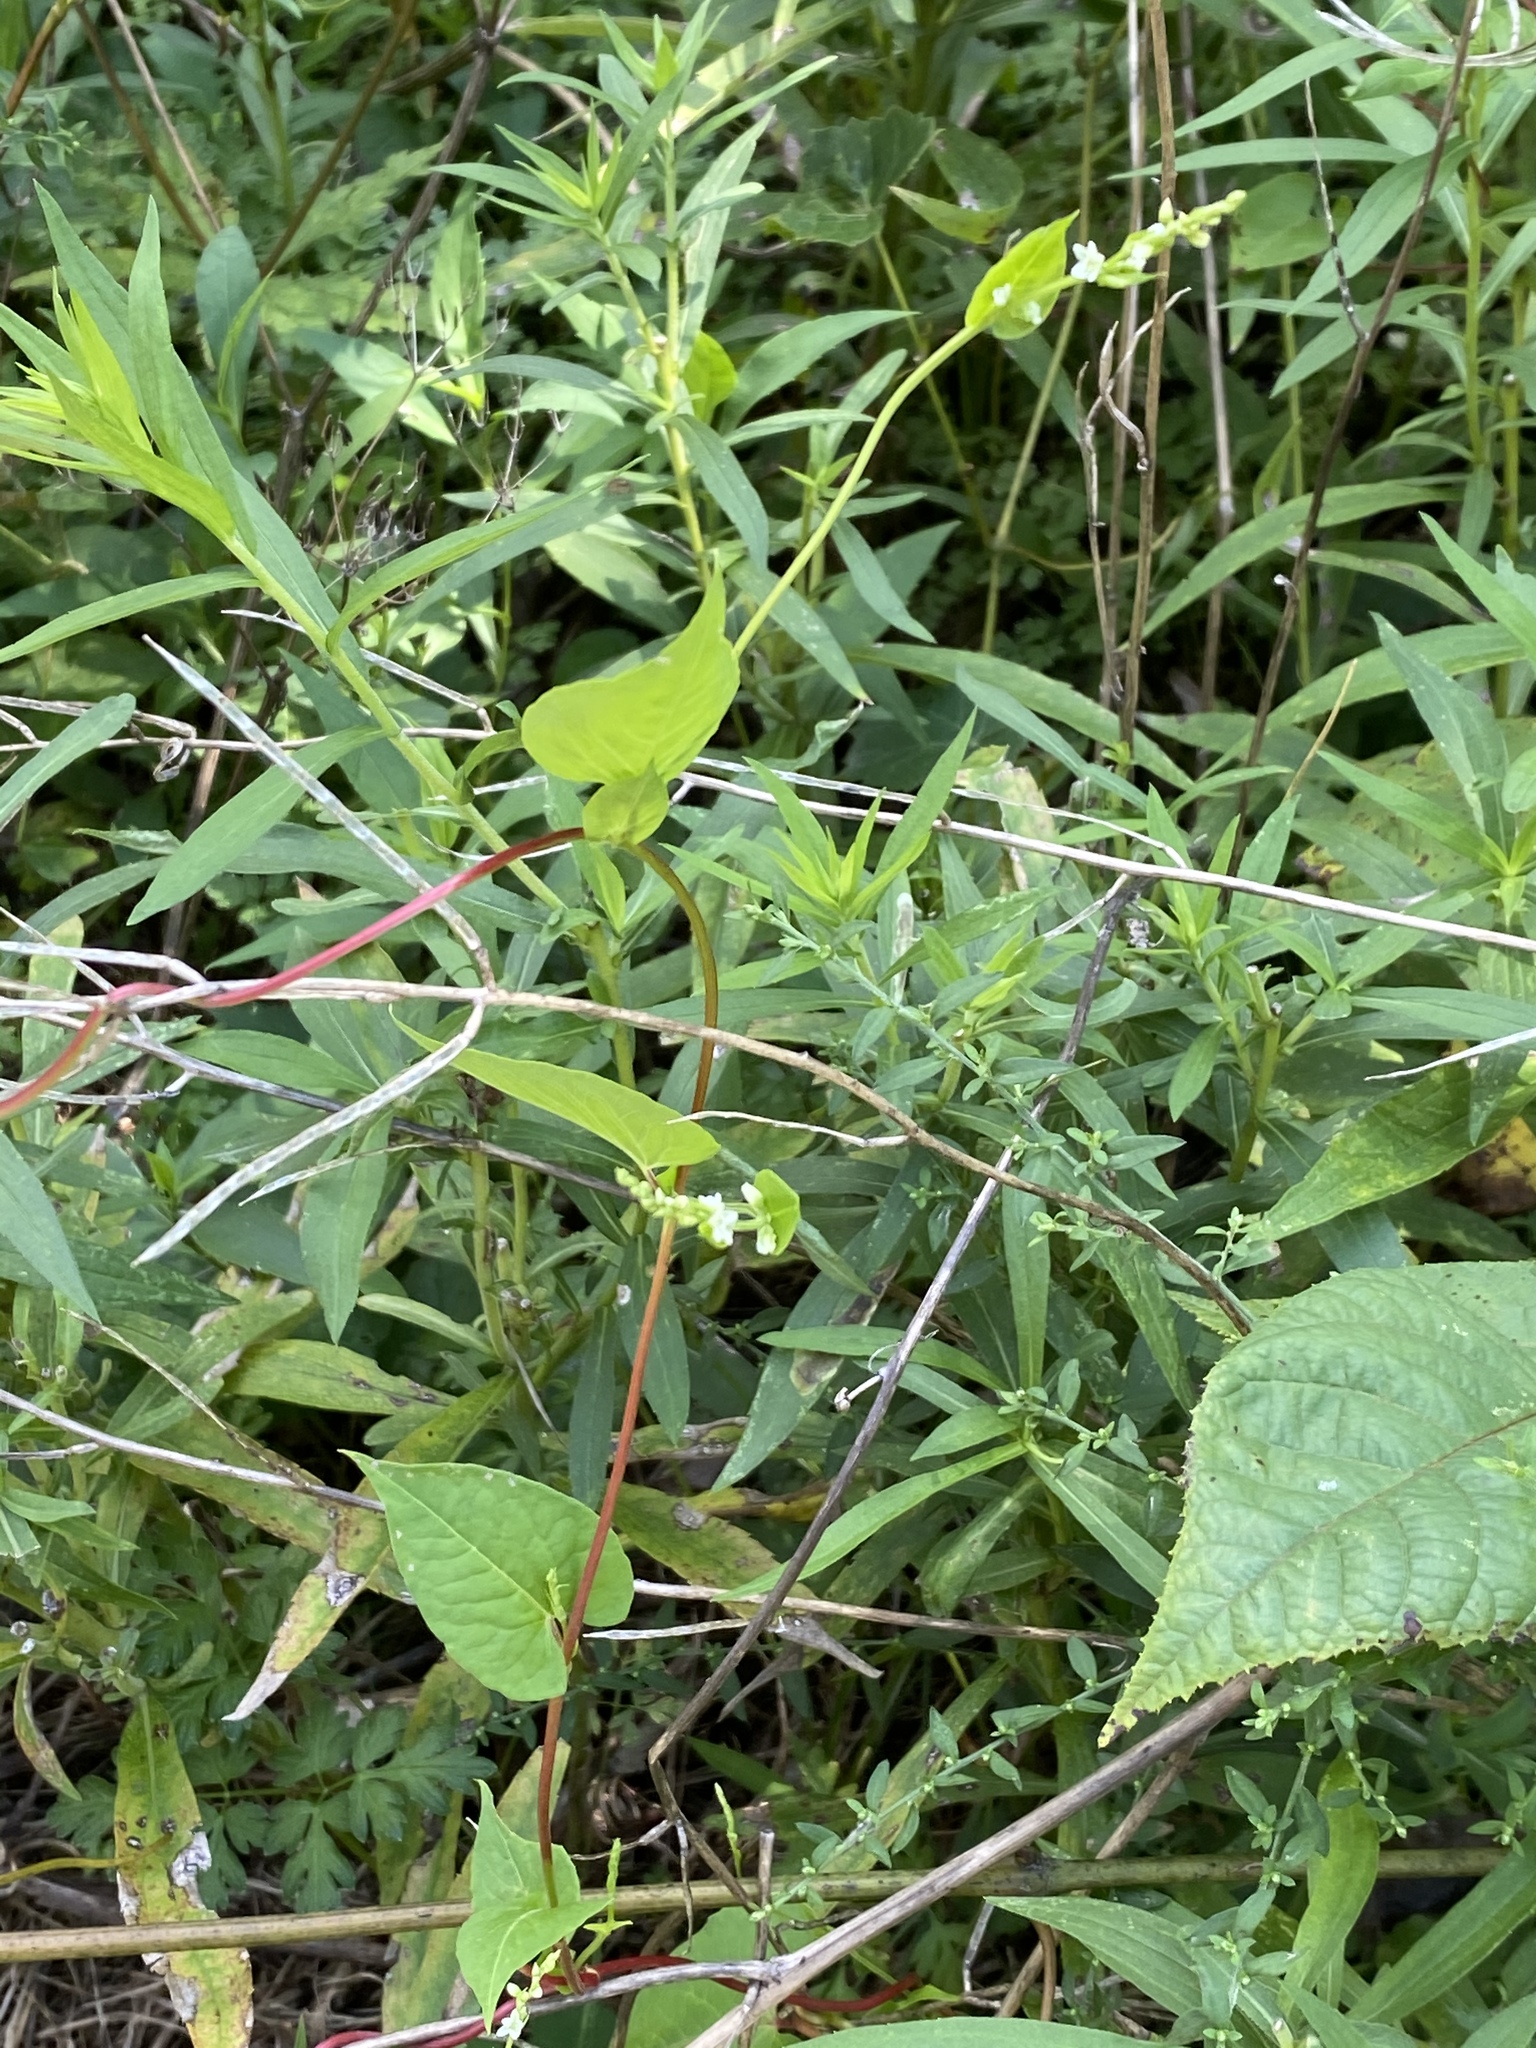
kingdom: Plantae
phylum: Tracheophyta
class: Magnoliopsida
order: Caryophyllales
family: Polygonaceae
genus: Fallopia
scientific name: Fallopia scandens
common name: Climbing false buckwheat
